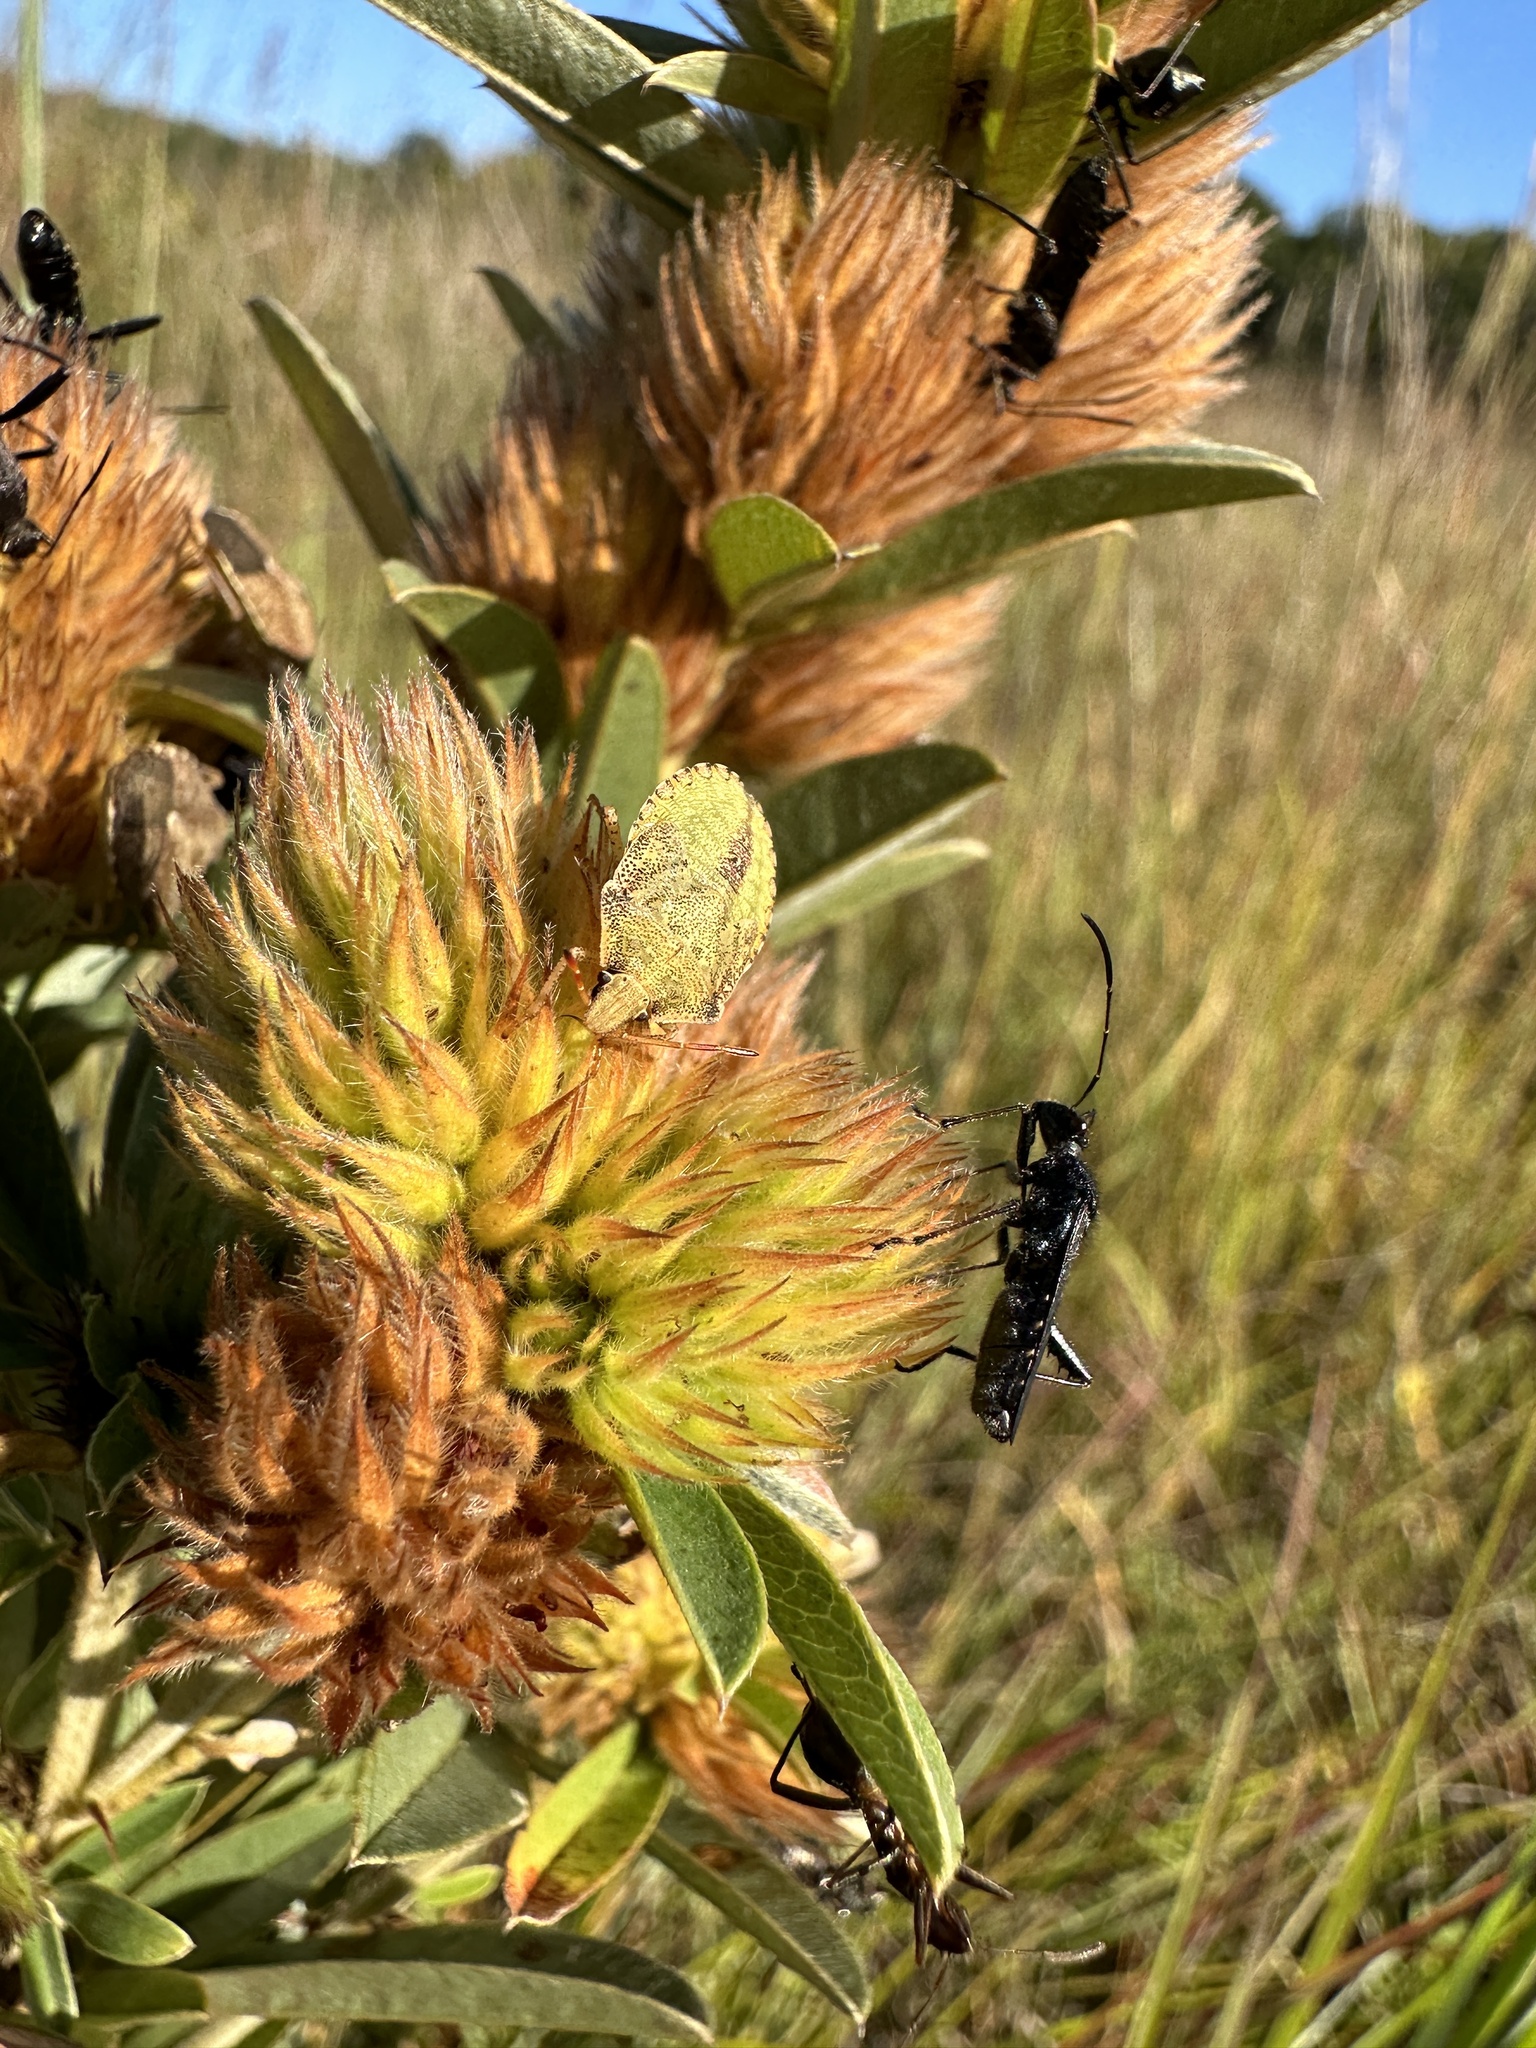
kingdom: Plantae
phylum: Tracheophyta
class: Magnoliopsida
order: Fabales
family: Fabaceae
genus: Lespedeza
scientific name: Lespedeza capitata
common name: Dusty clover
